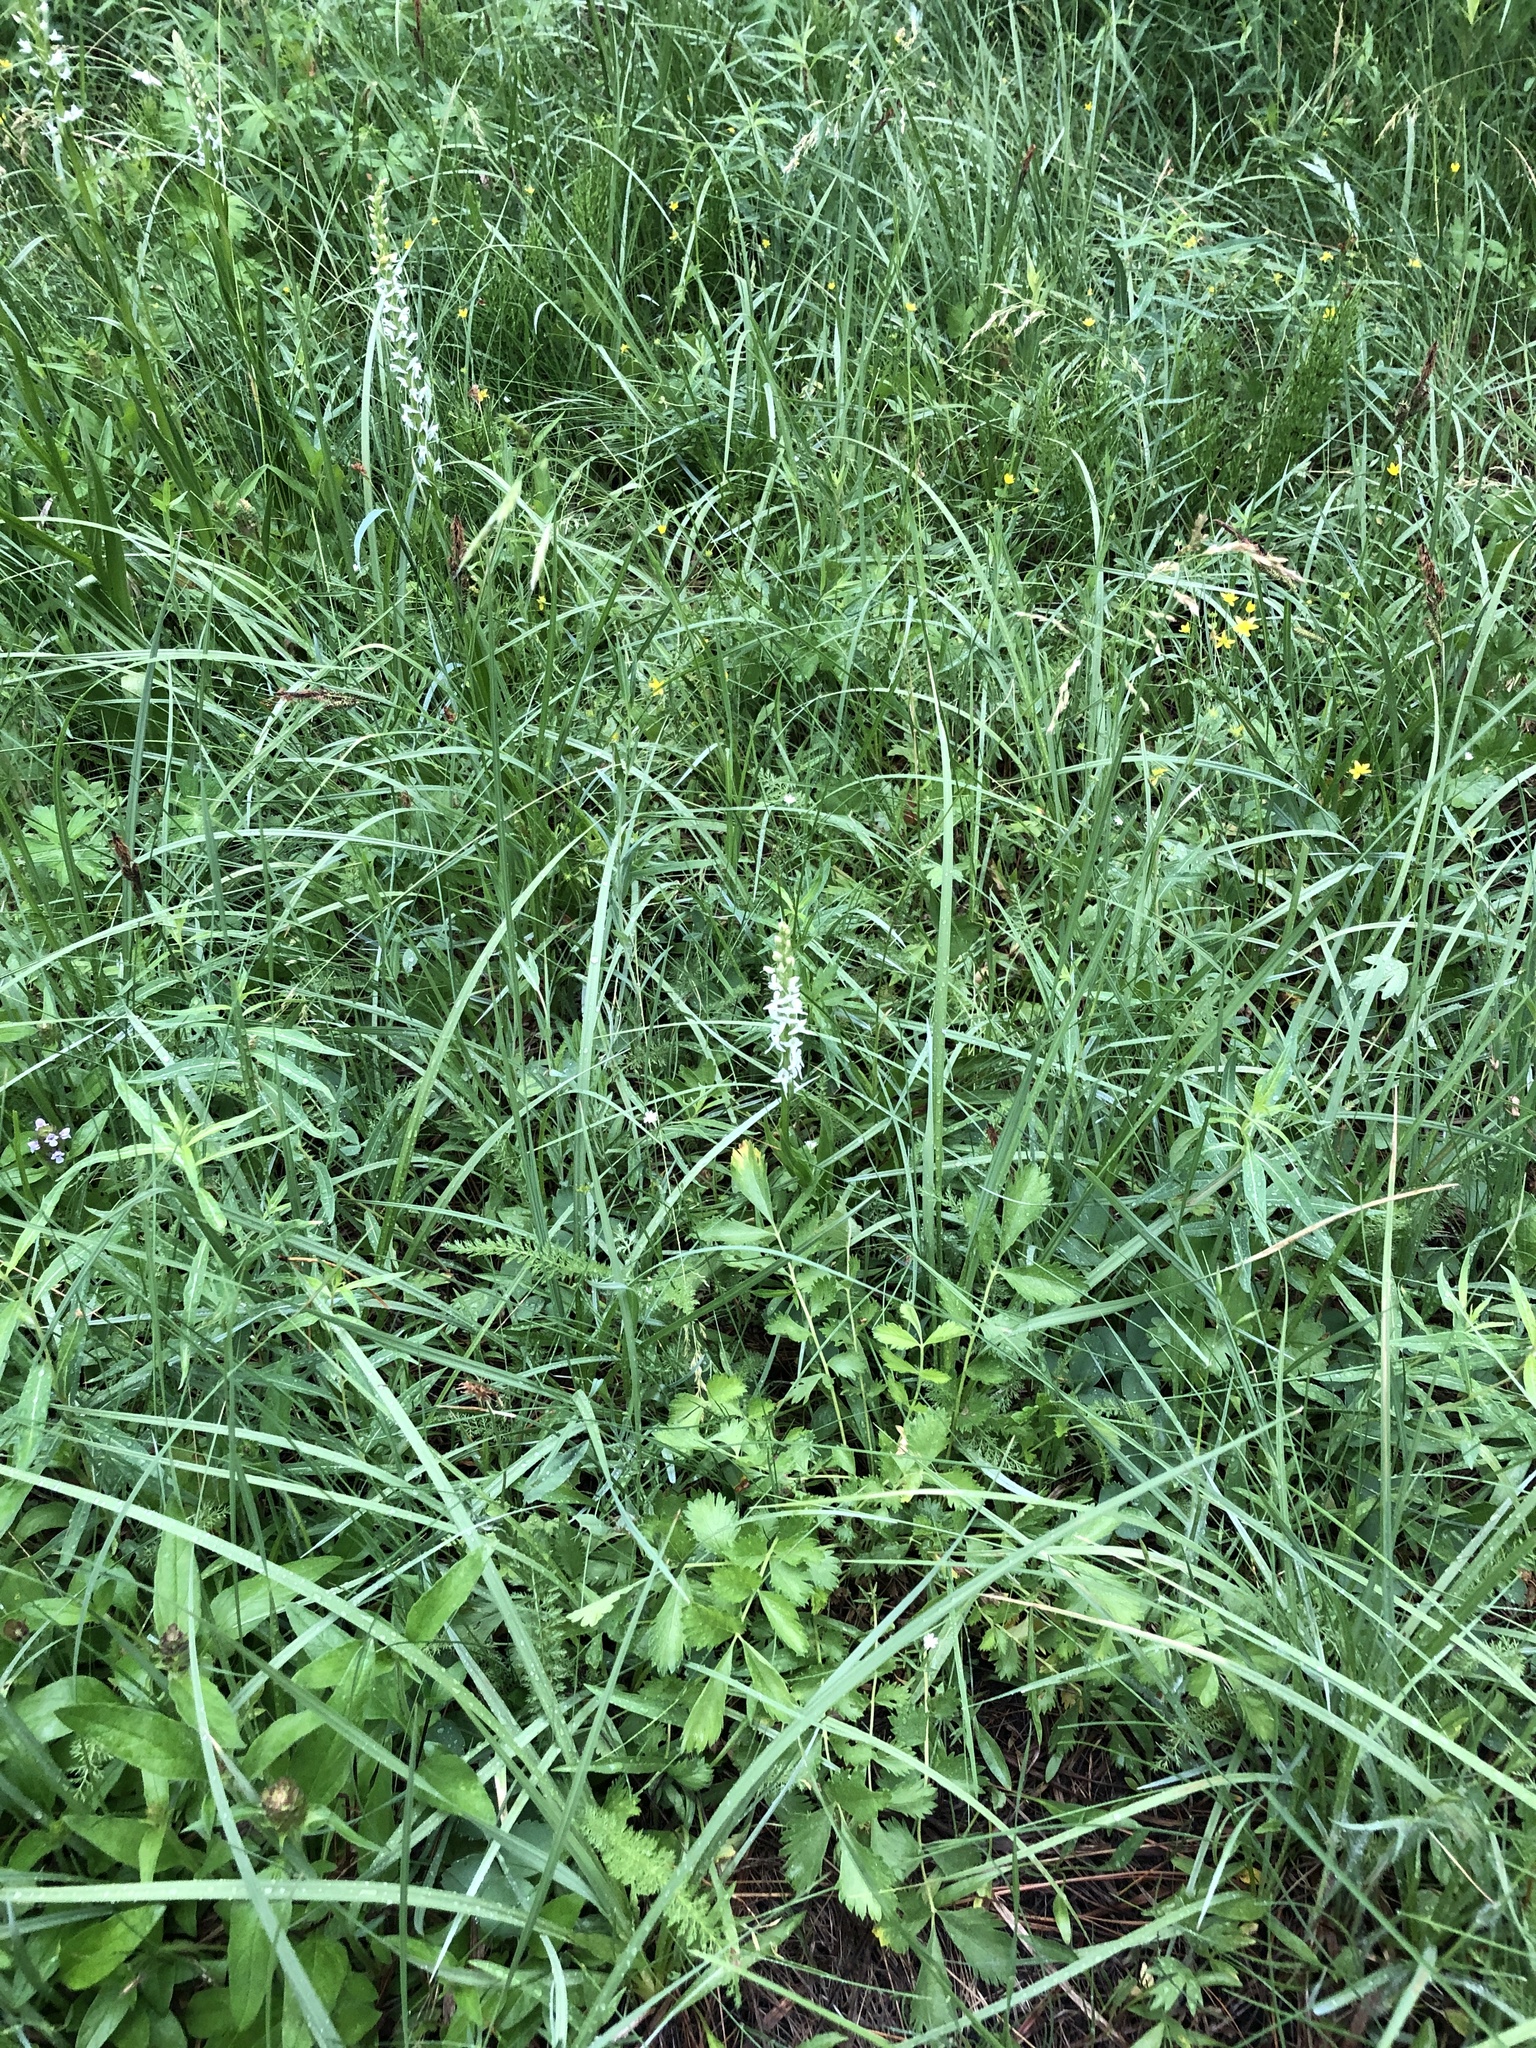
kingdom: Plantae
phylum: Tracheophyta
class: Liliopsida
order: Asparagales
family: Orchidaceae
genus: Platanthera
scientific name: Platanthera dilatata
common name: Bog candles
